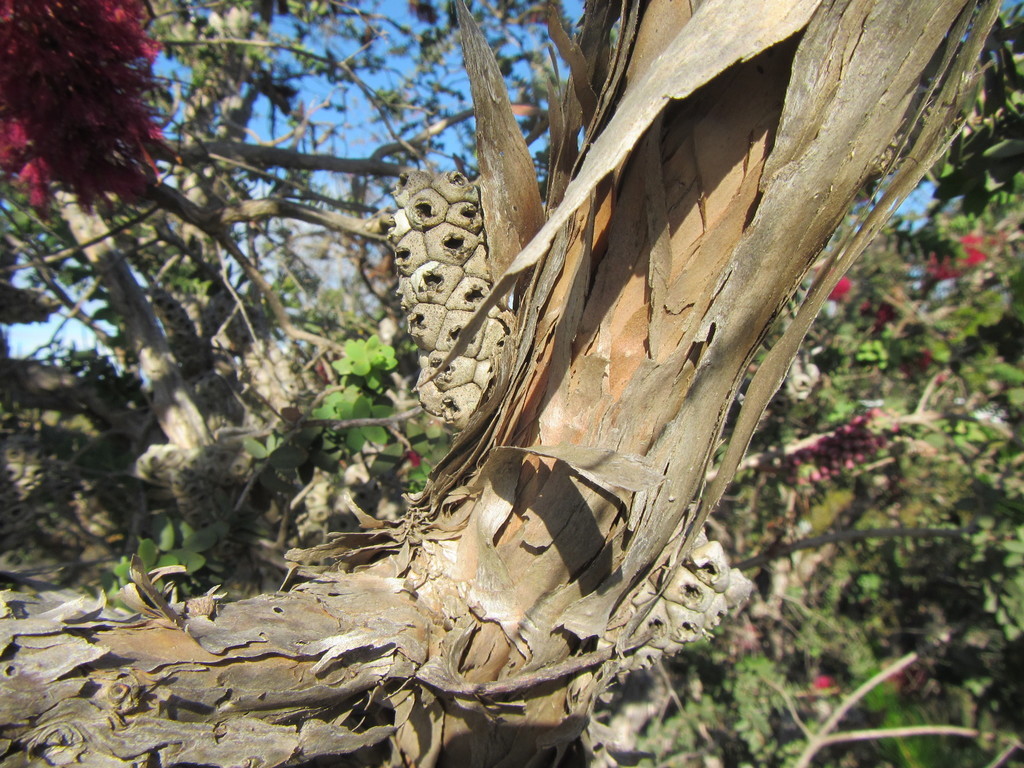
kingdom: Plantae
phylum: Tracheophyta
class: Magnoliopsida
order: Myrtales
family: Myrtaceae
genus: Melaleuca
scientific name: Melaleuca elliptica
